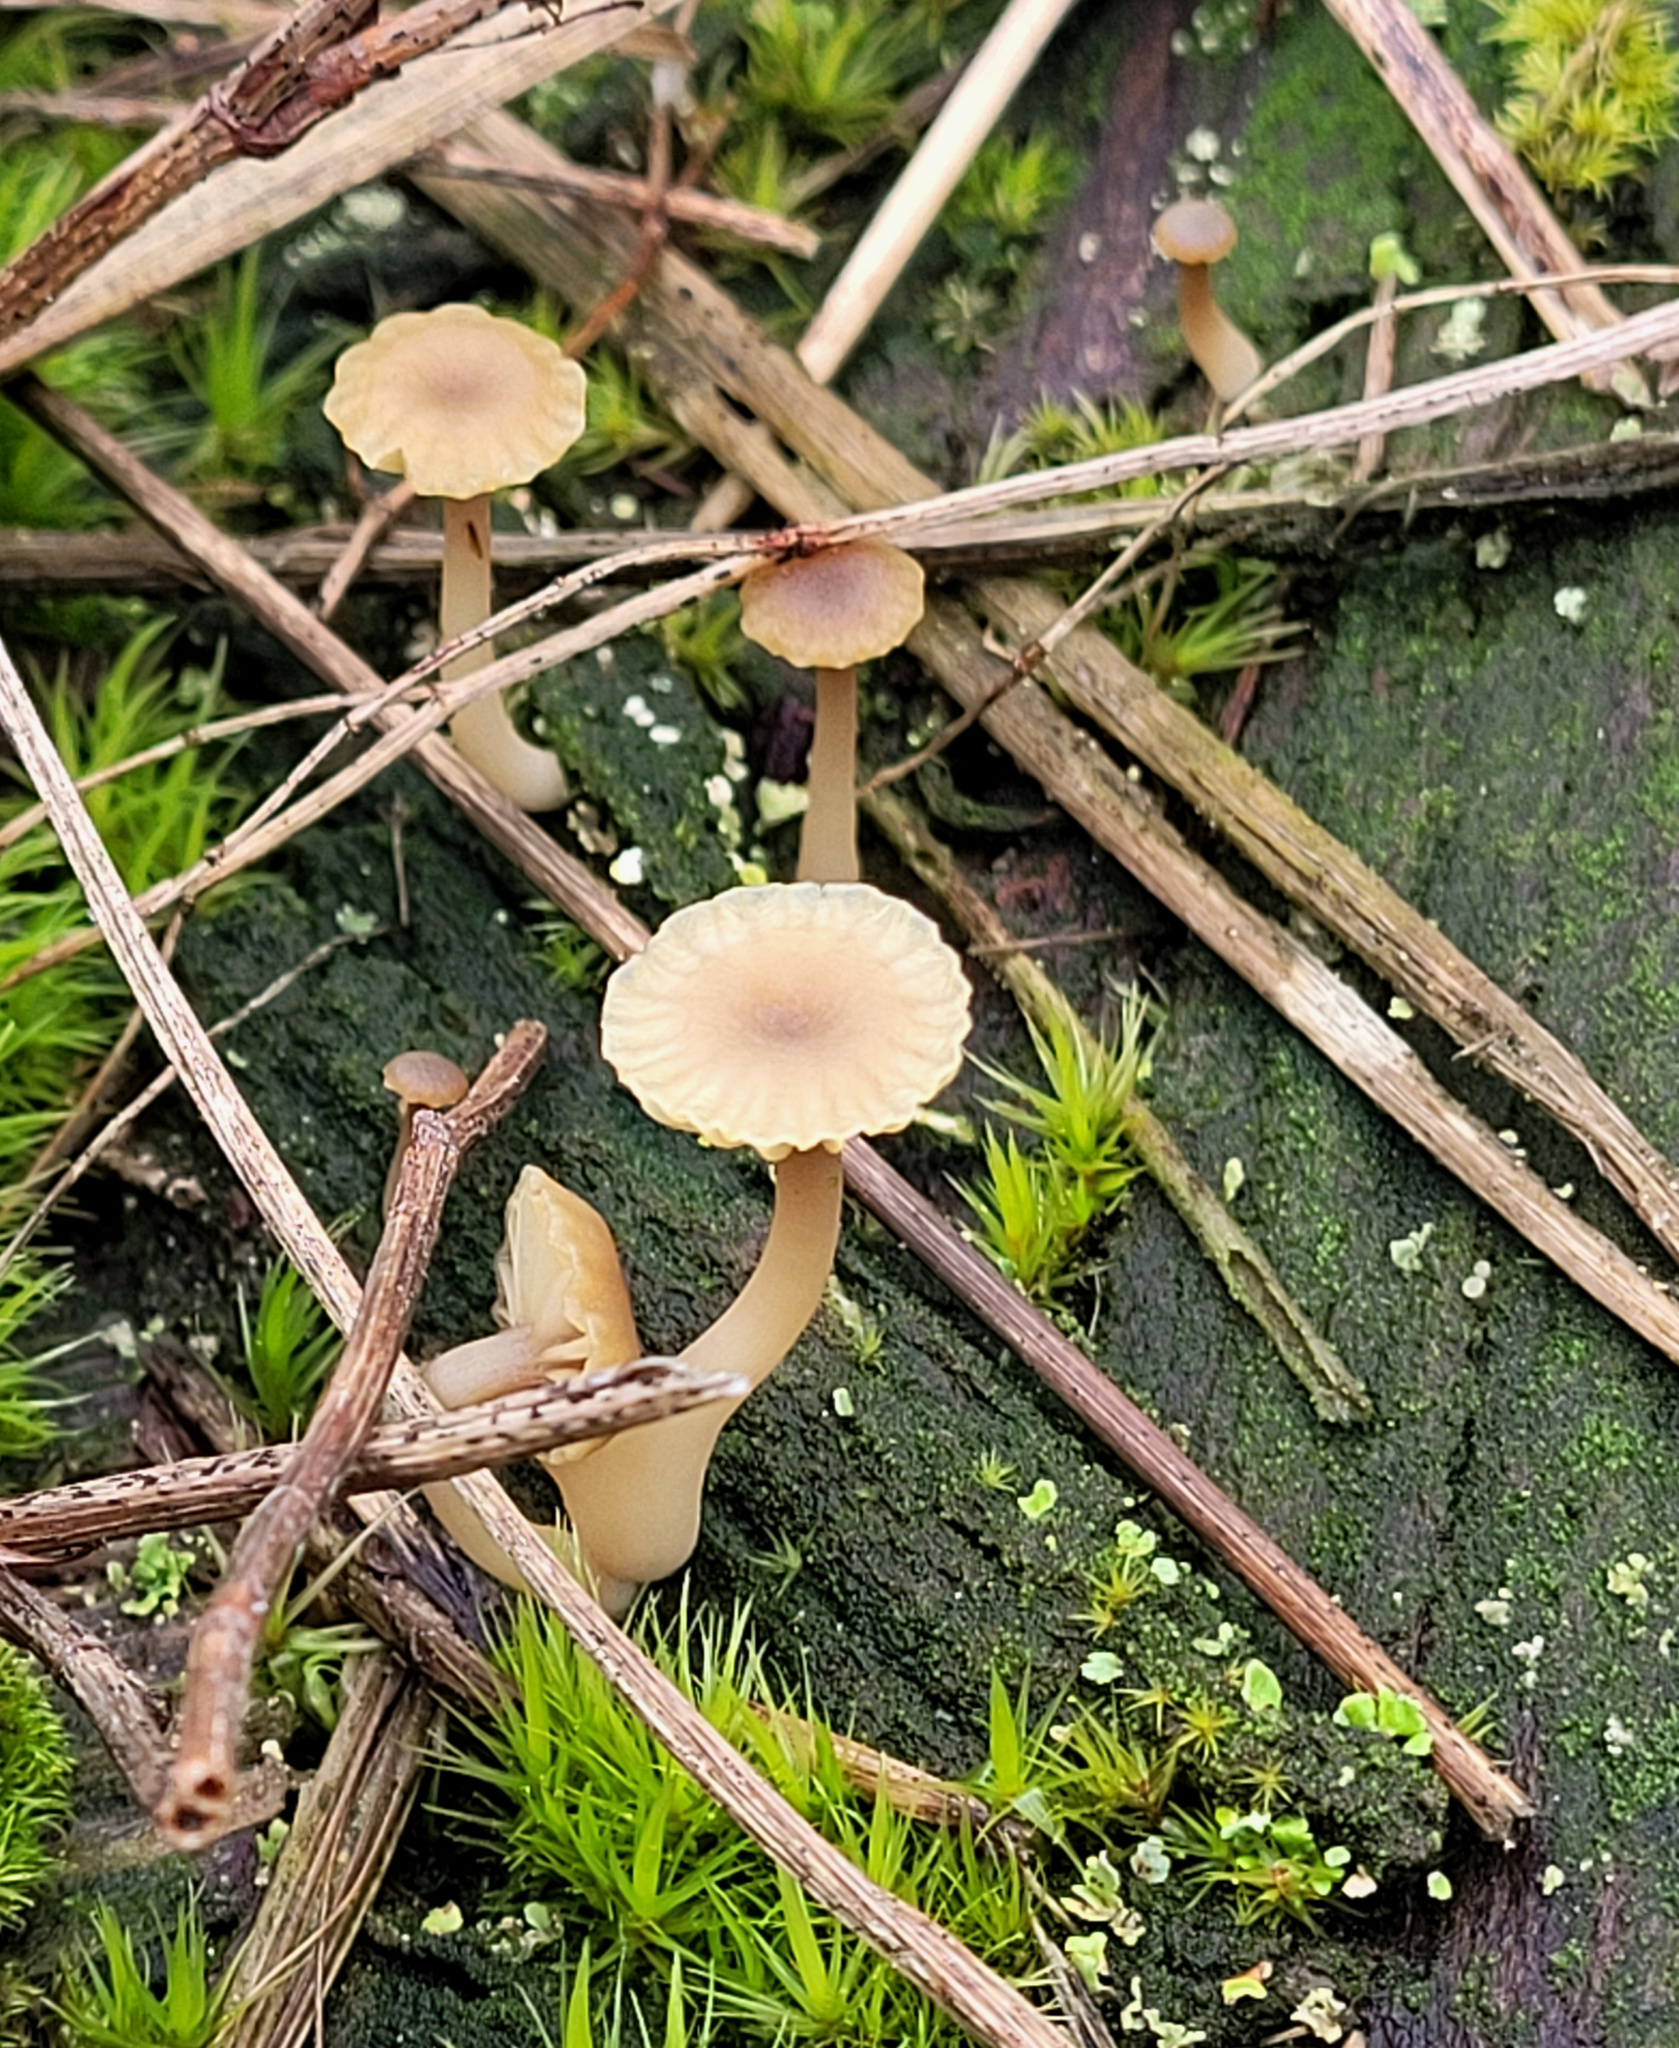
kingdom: Fungi
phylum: Basidiomycota
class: Agaricomycetes
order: Agaricales
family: Hygrophoraceae
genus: Lichenomphalia
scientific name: Lichenomphalia
